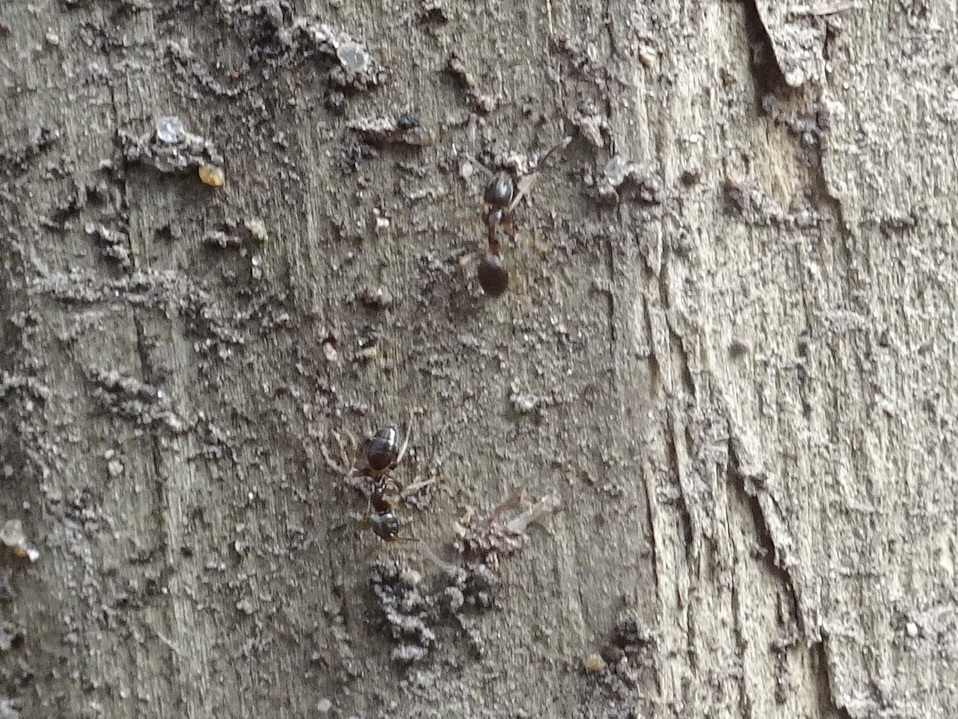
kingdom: Animalia
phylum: Arthropoda
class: Insecta
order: Hymenoptera
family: Formicidae
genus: Tapinoma
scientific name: Tapinoma sessile
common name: Odorous house ant
